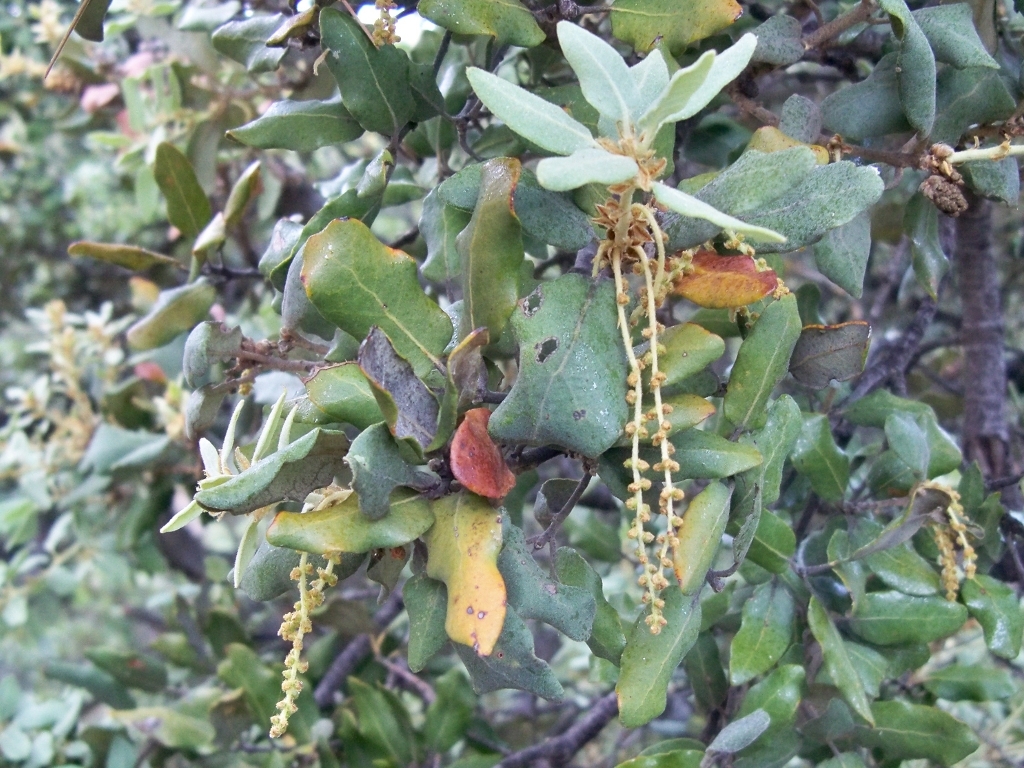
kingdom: Plantae
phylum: Tracheophyta
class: Magnoliopsida
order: Fagales
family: Fagaceae
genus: Quercus
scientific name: Quercus rotundifolia
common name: Holm oak
